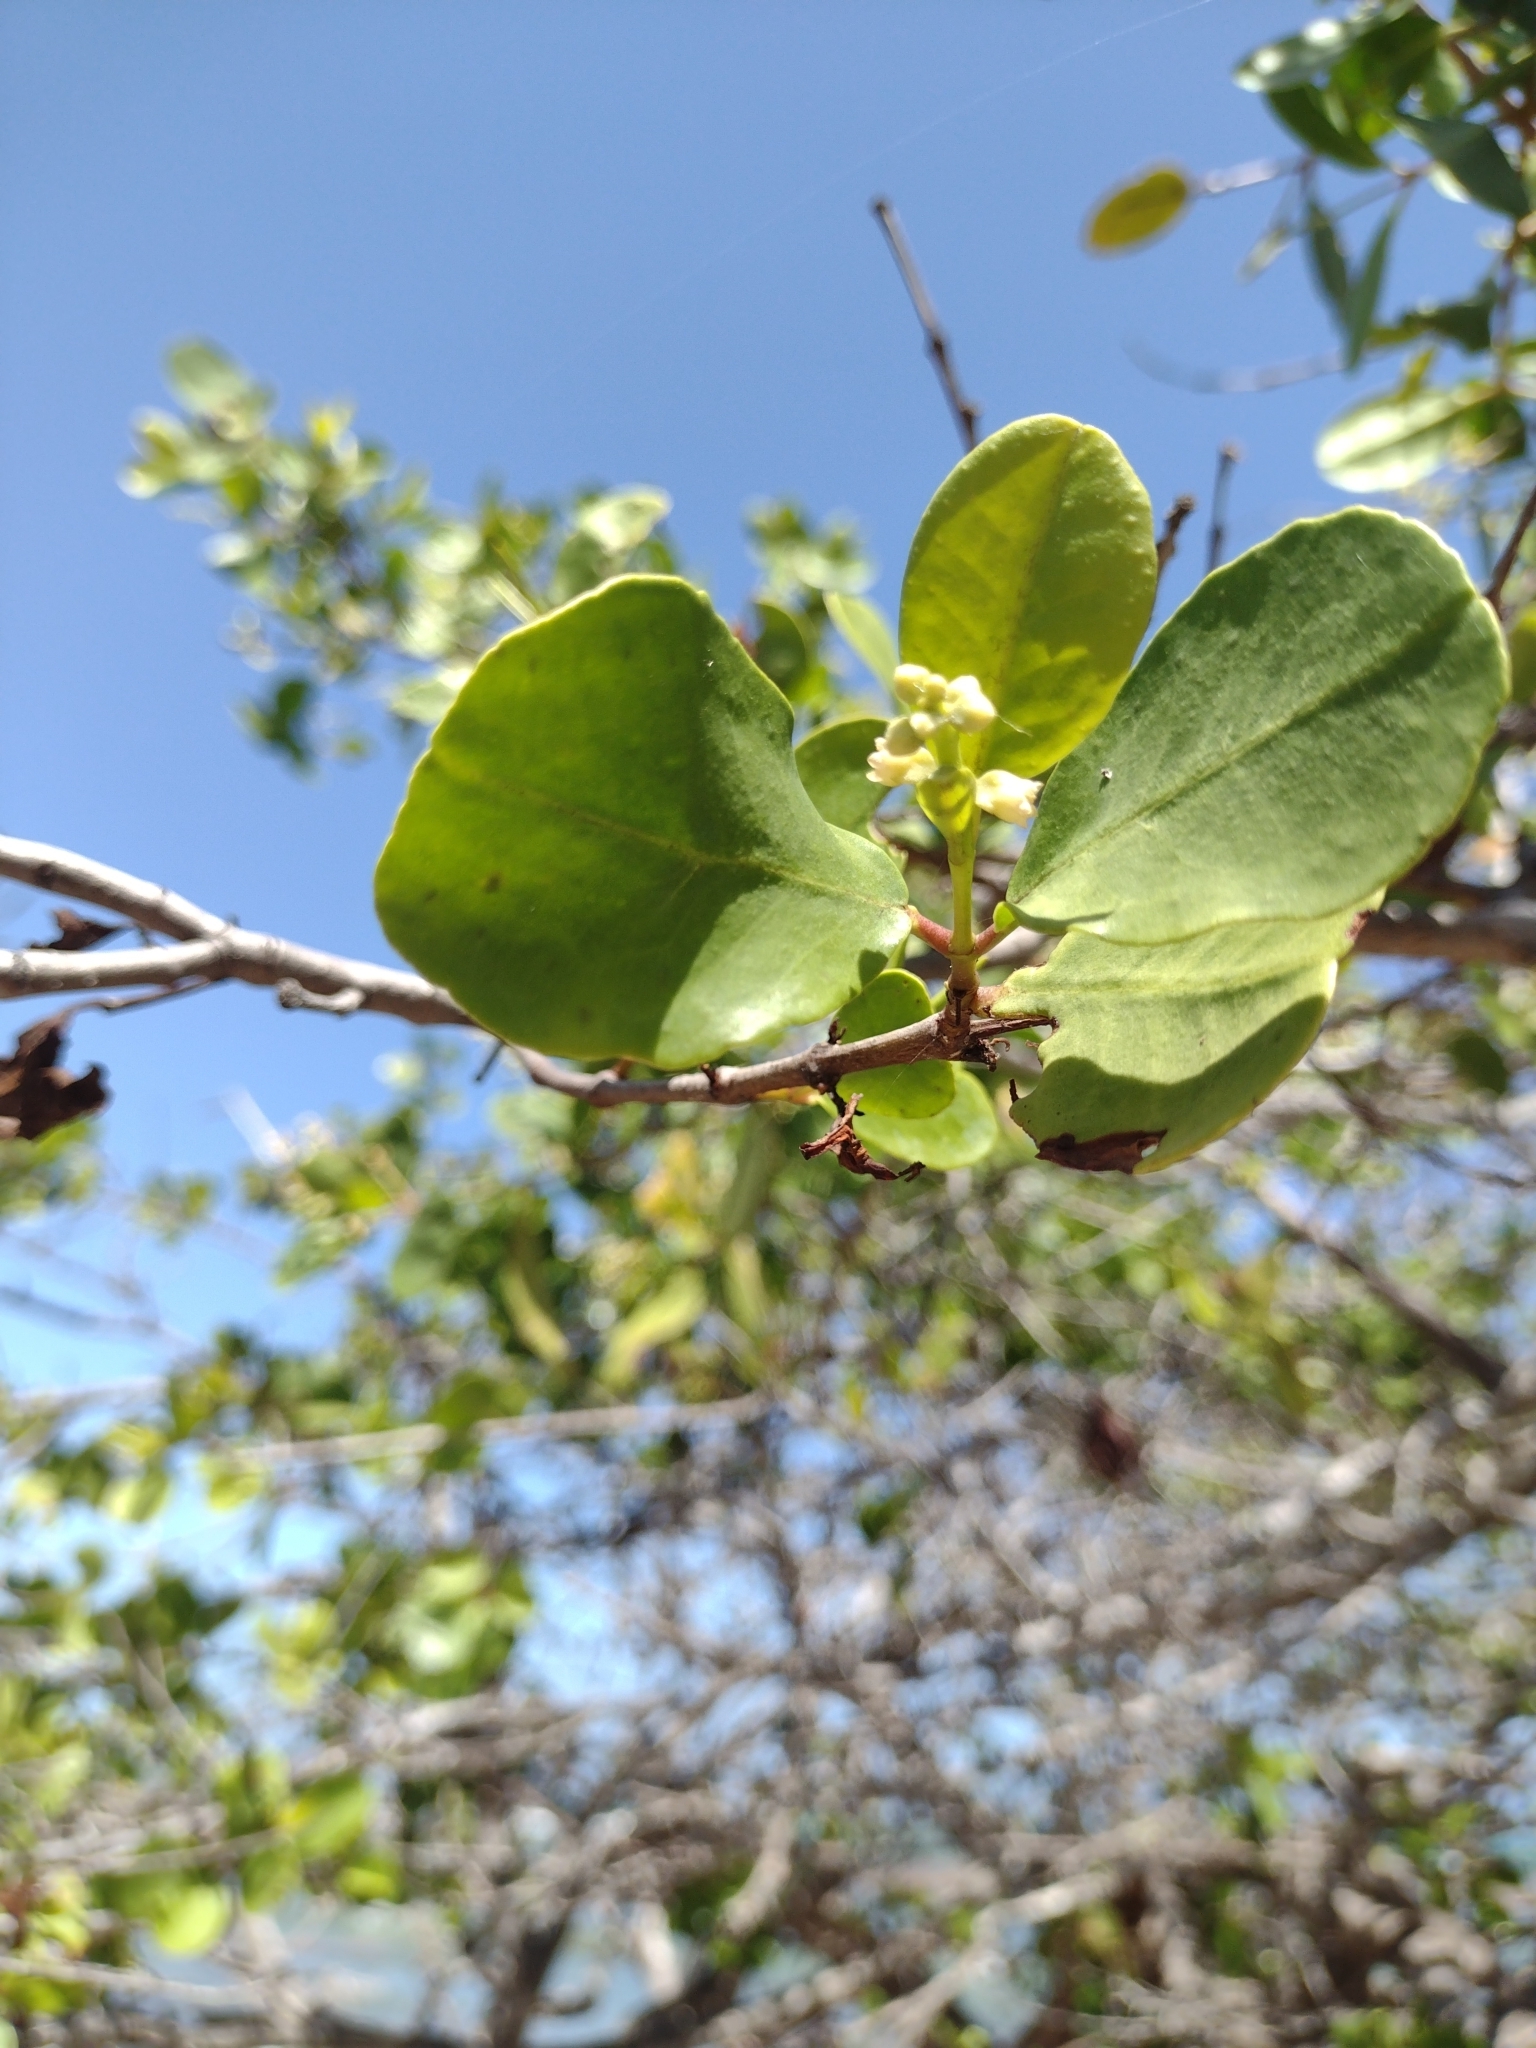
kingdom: Plantae
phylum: Tracheophyta
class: Magnoliopsida
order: Myrtales
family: Combretaceae
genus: Laguncularia
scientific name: Laguncularia racemosa
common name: White mangrove
